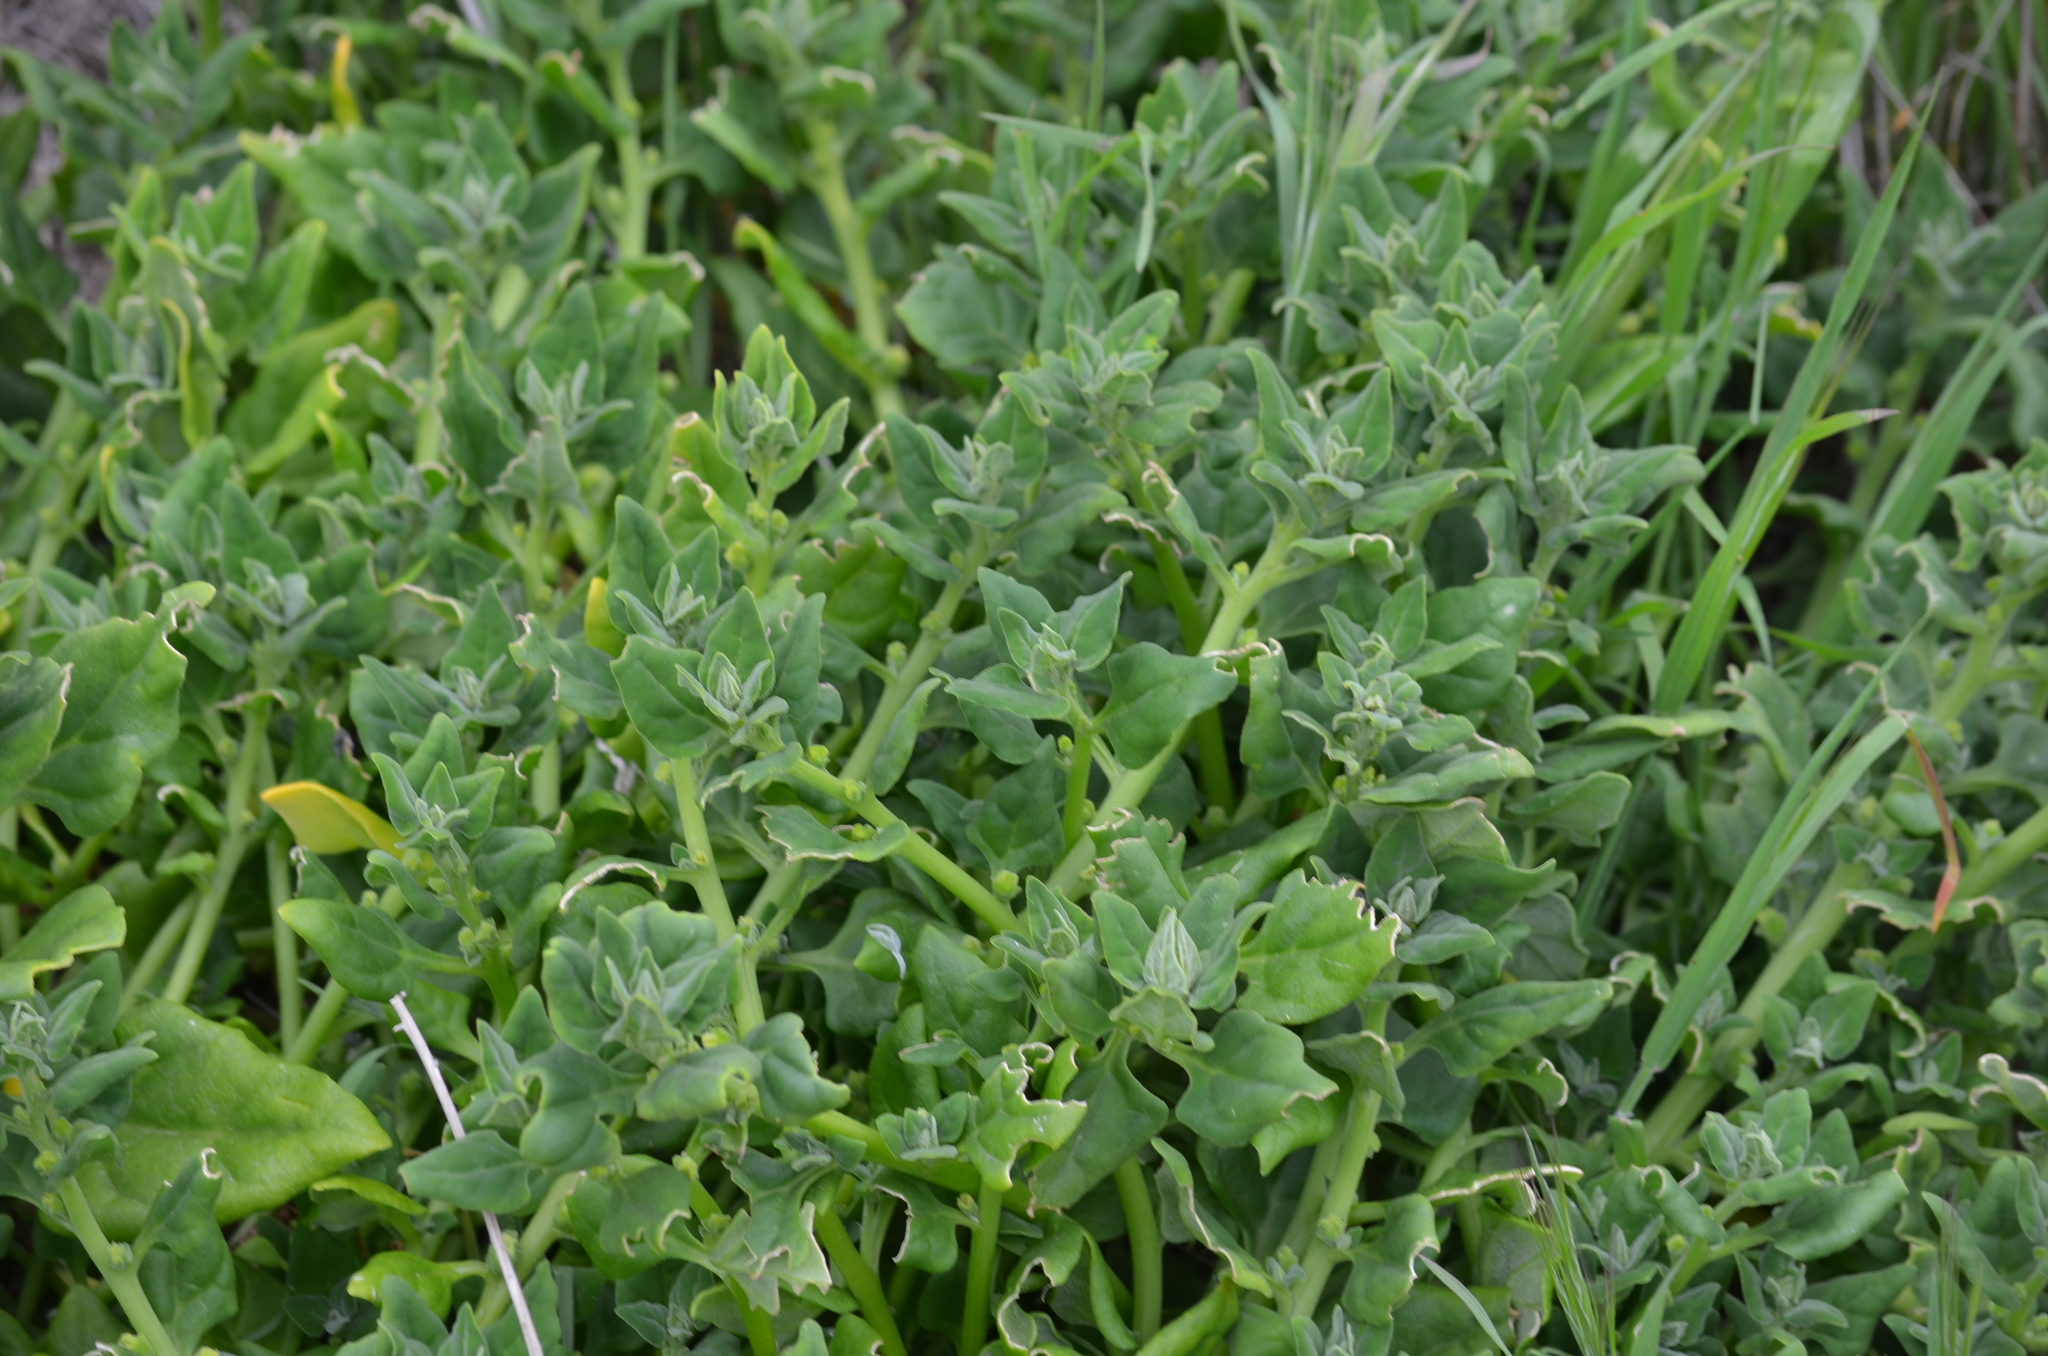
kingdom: Plantae
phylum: Tracheophyta
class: Magnoliopsida
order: Caryophyllales
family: Aizoaceae
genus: Tetragonia
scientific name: Tetragonia tetragonoides
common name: New zealand-spinach
